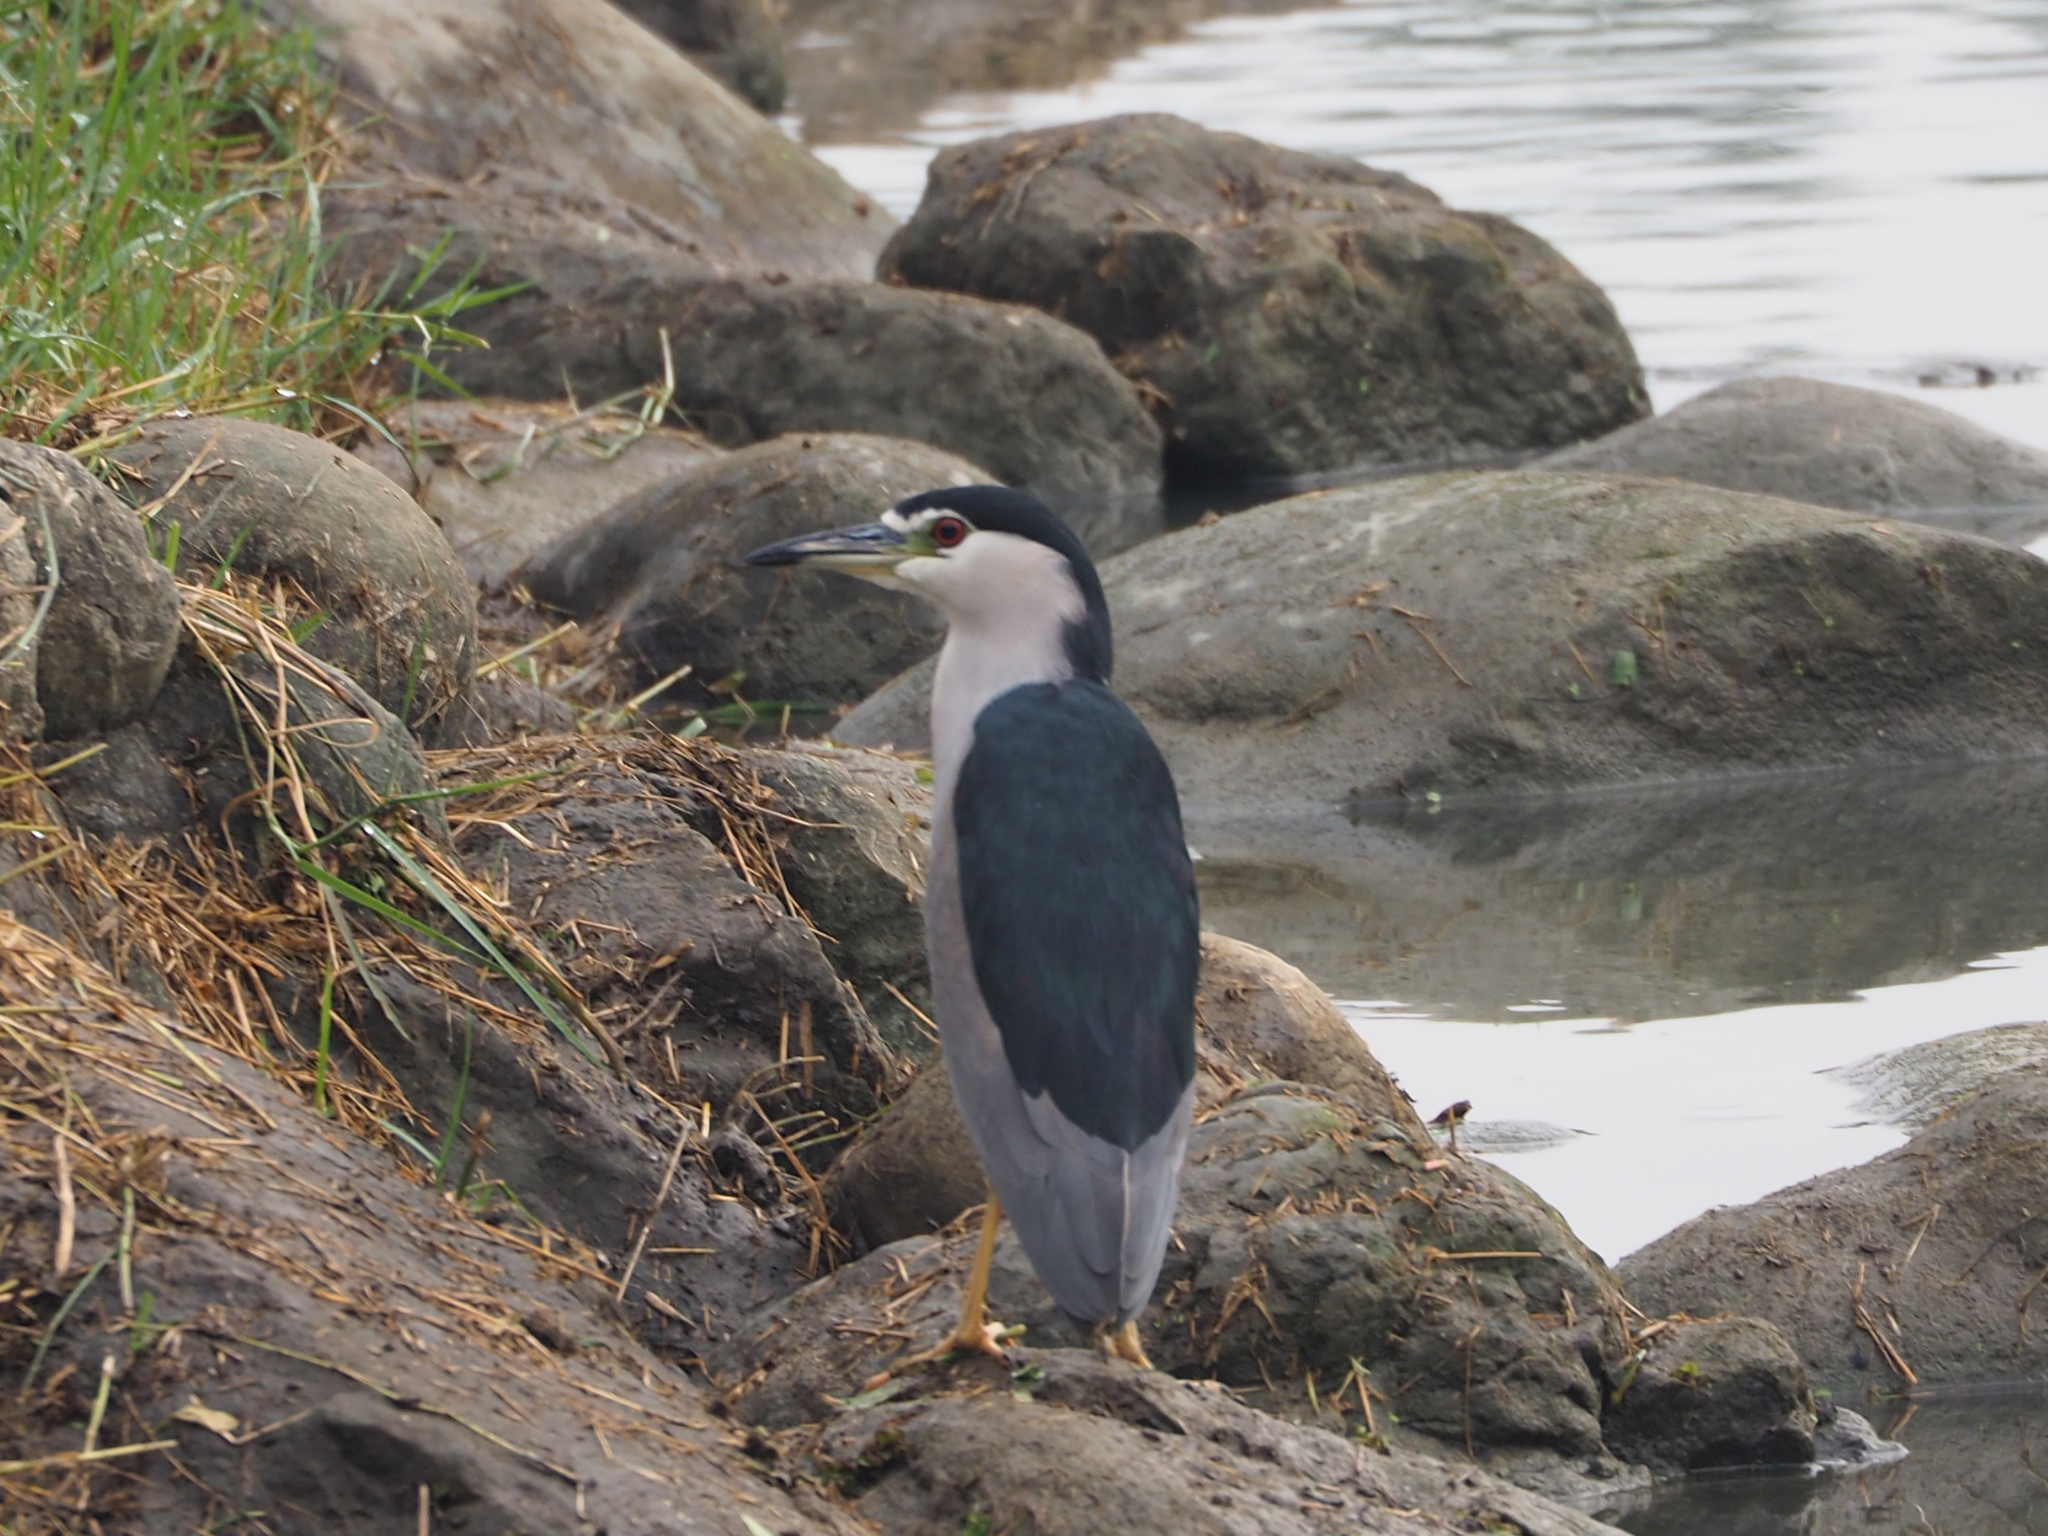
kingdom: Animalia
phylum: Chordata
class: Aves
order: Pelecaniformes
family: Ardeidae
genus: Nycticorax
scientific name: Nycticorax nycticorax
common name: Black-crowned night heron
